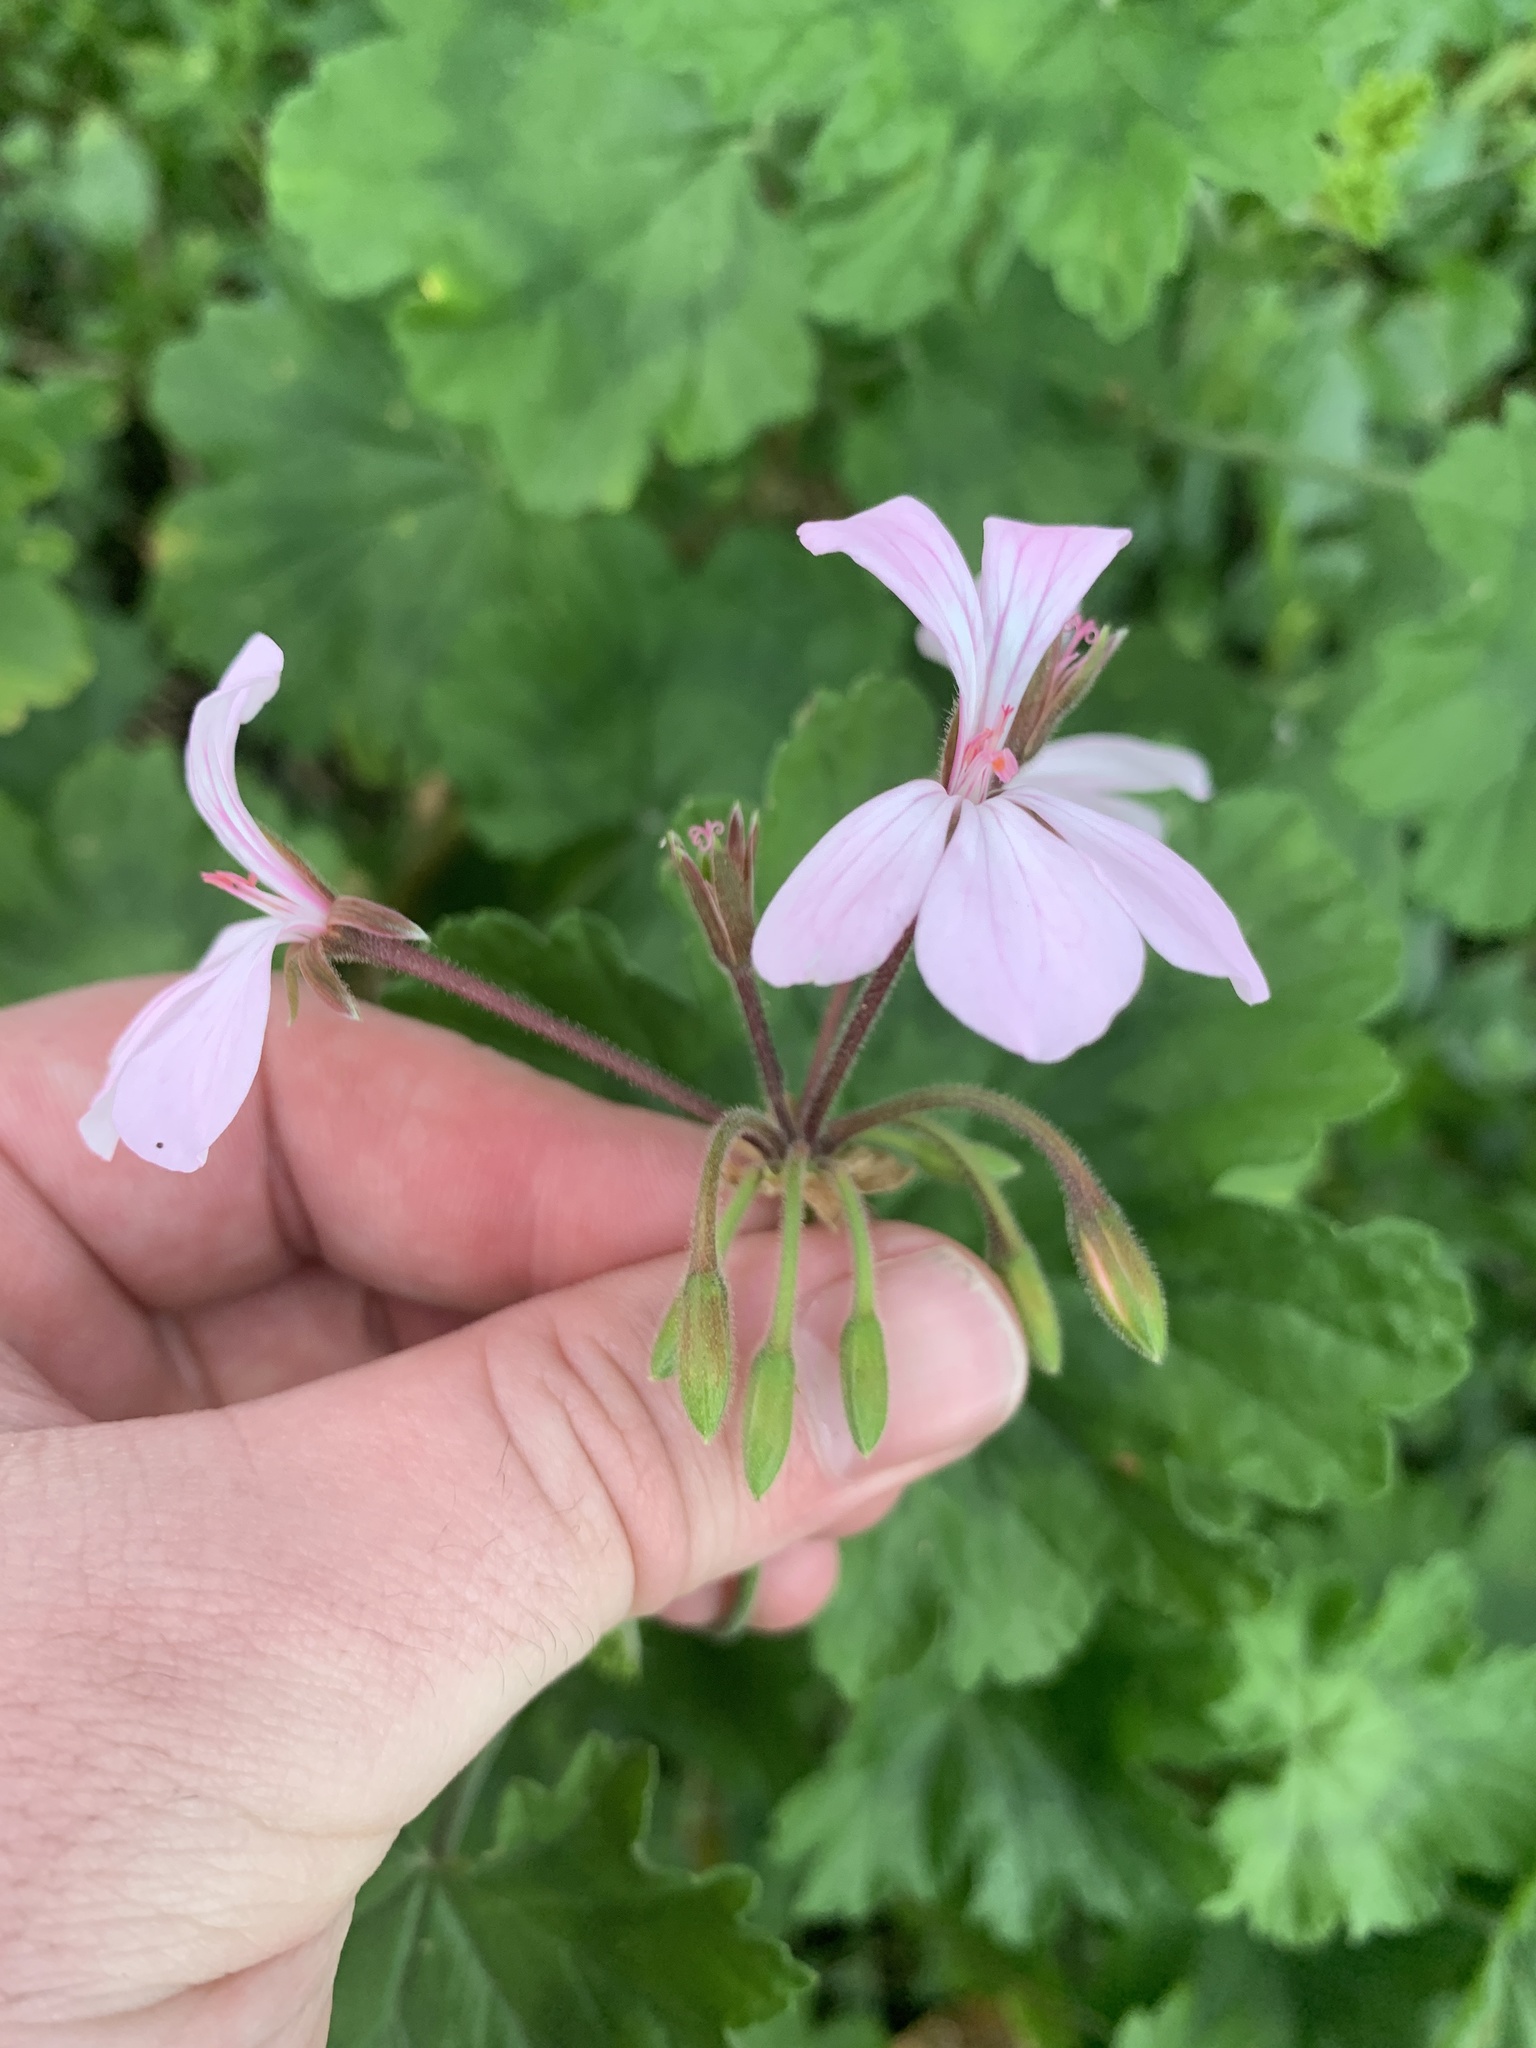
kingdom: Plantae
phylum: Tracheophyta
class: Magnoliopsida
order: Geraniales
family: Geraniaceae
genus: Pelargonium
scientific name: Pelargonium zonale
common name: Horseshoe geranium
